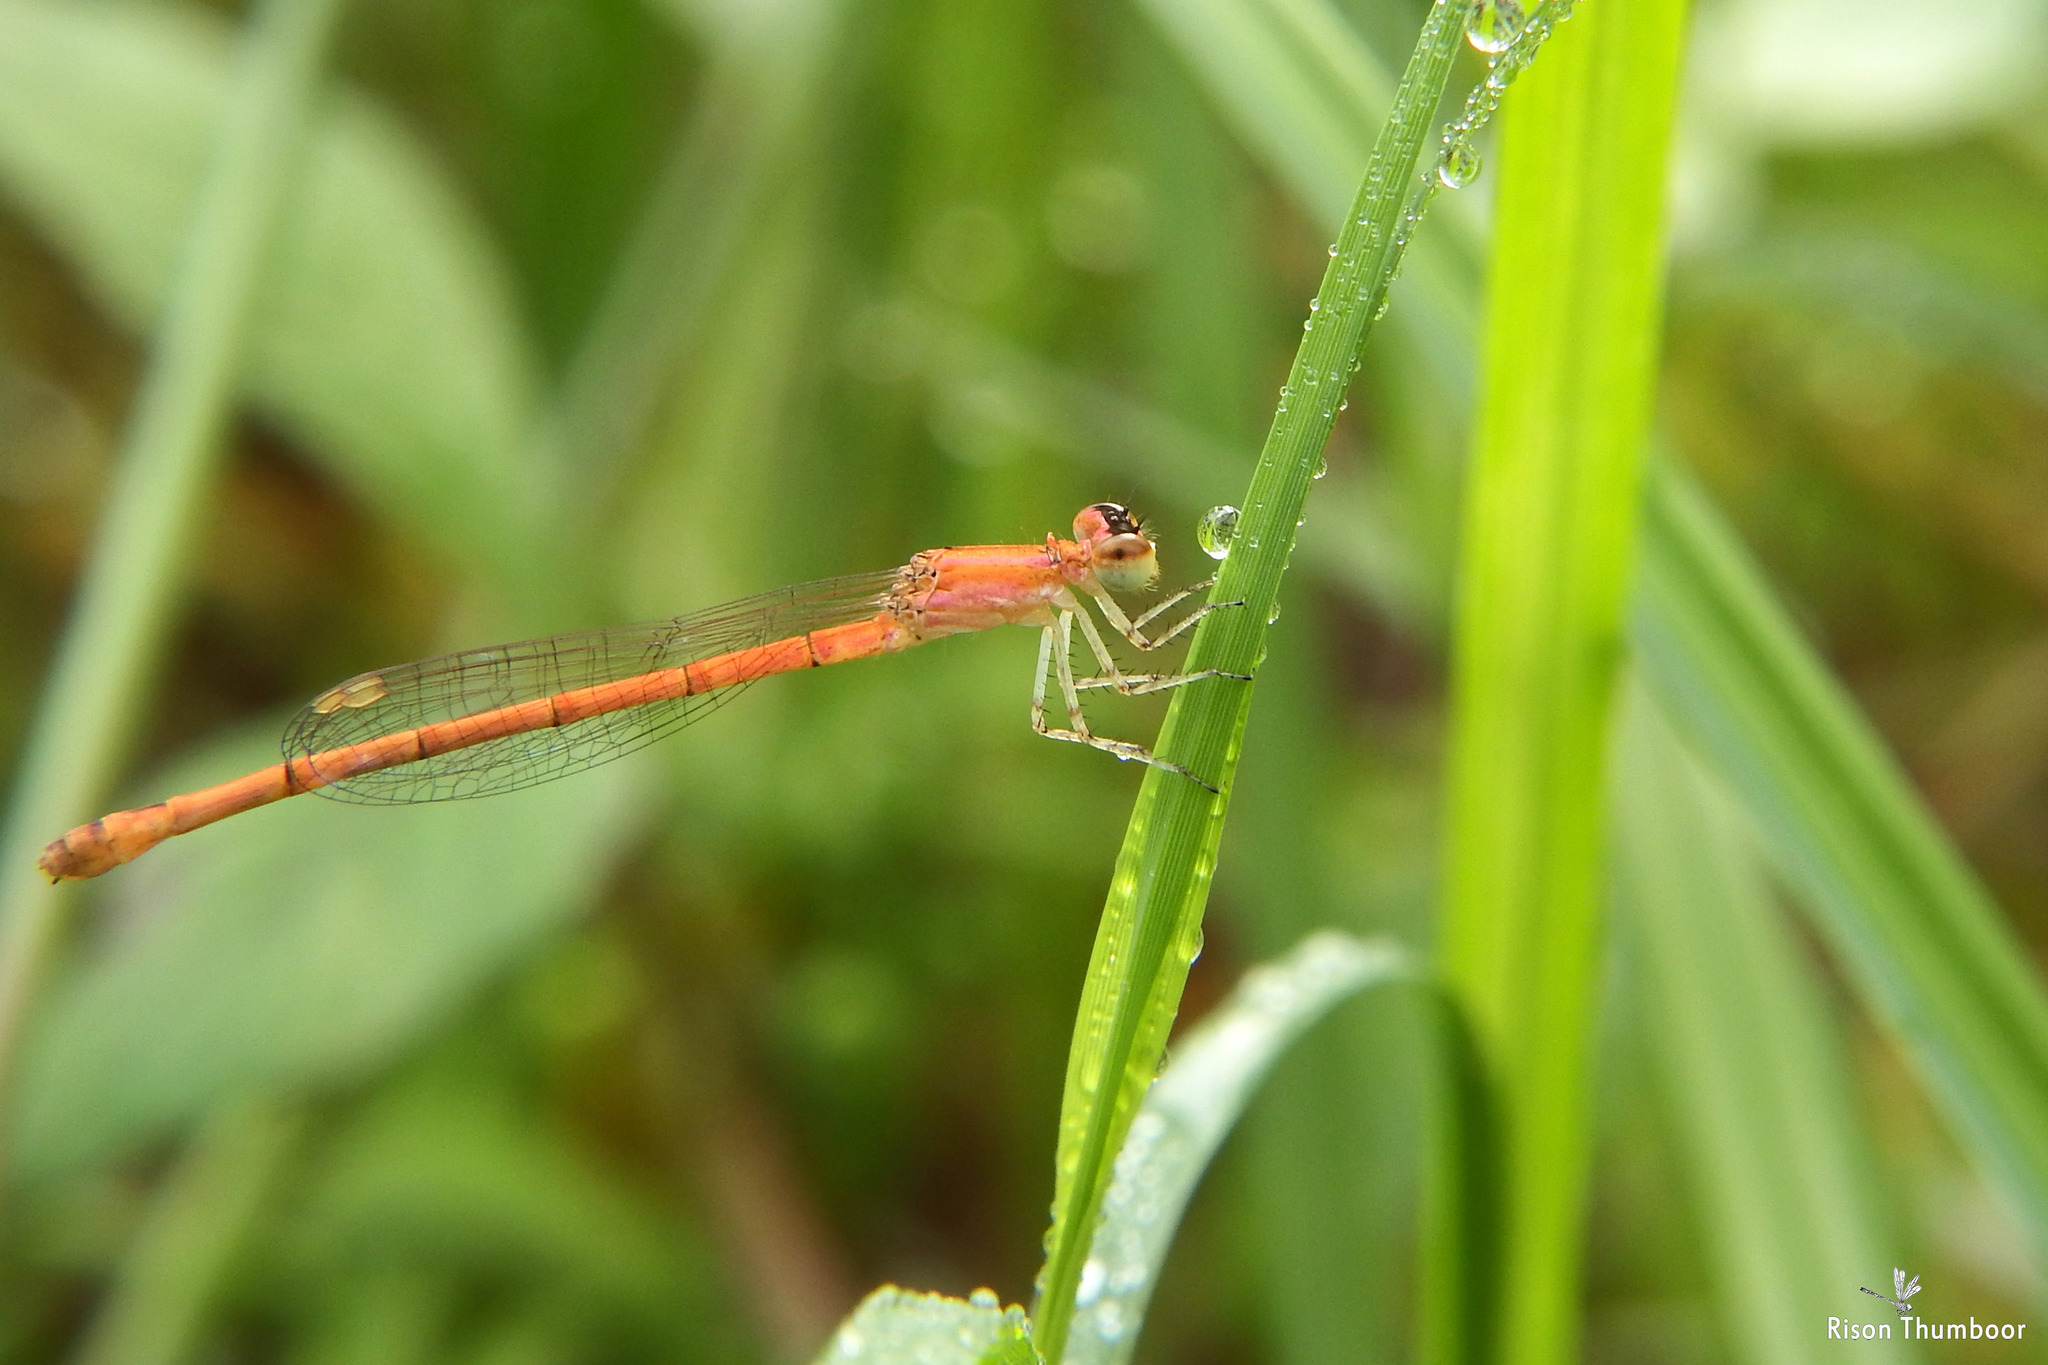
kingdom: Animalia
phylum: Arthropoda
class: Insecta
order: Odonata
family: Coenagrionidae
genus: Agriocnemis
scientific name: Agriocnemis keralensis
